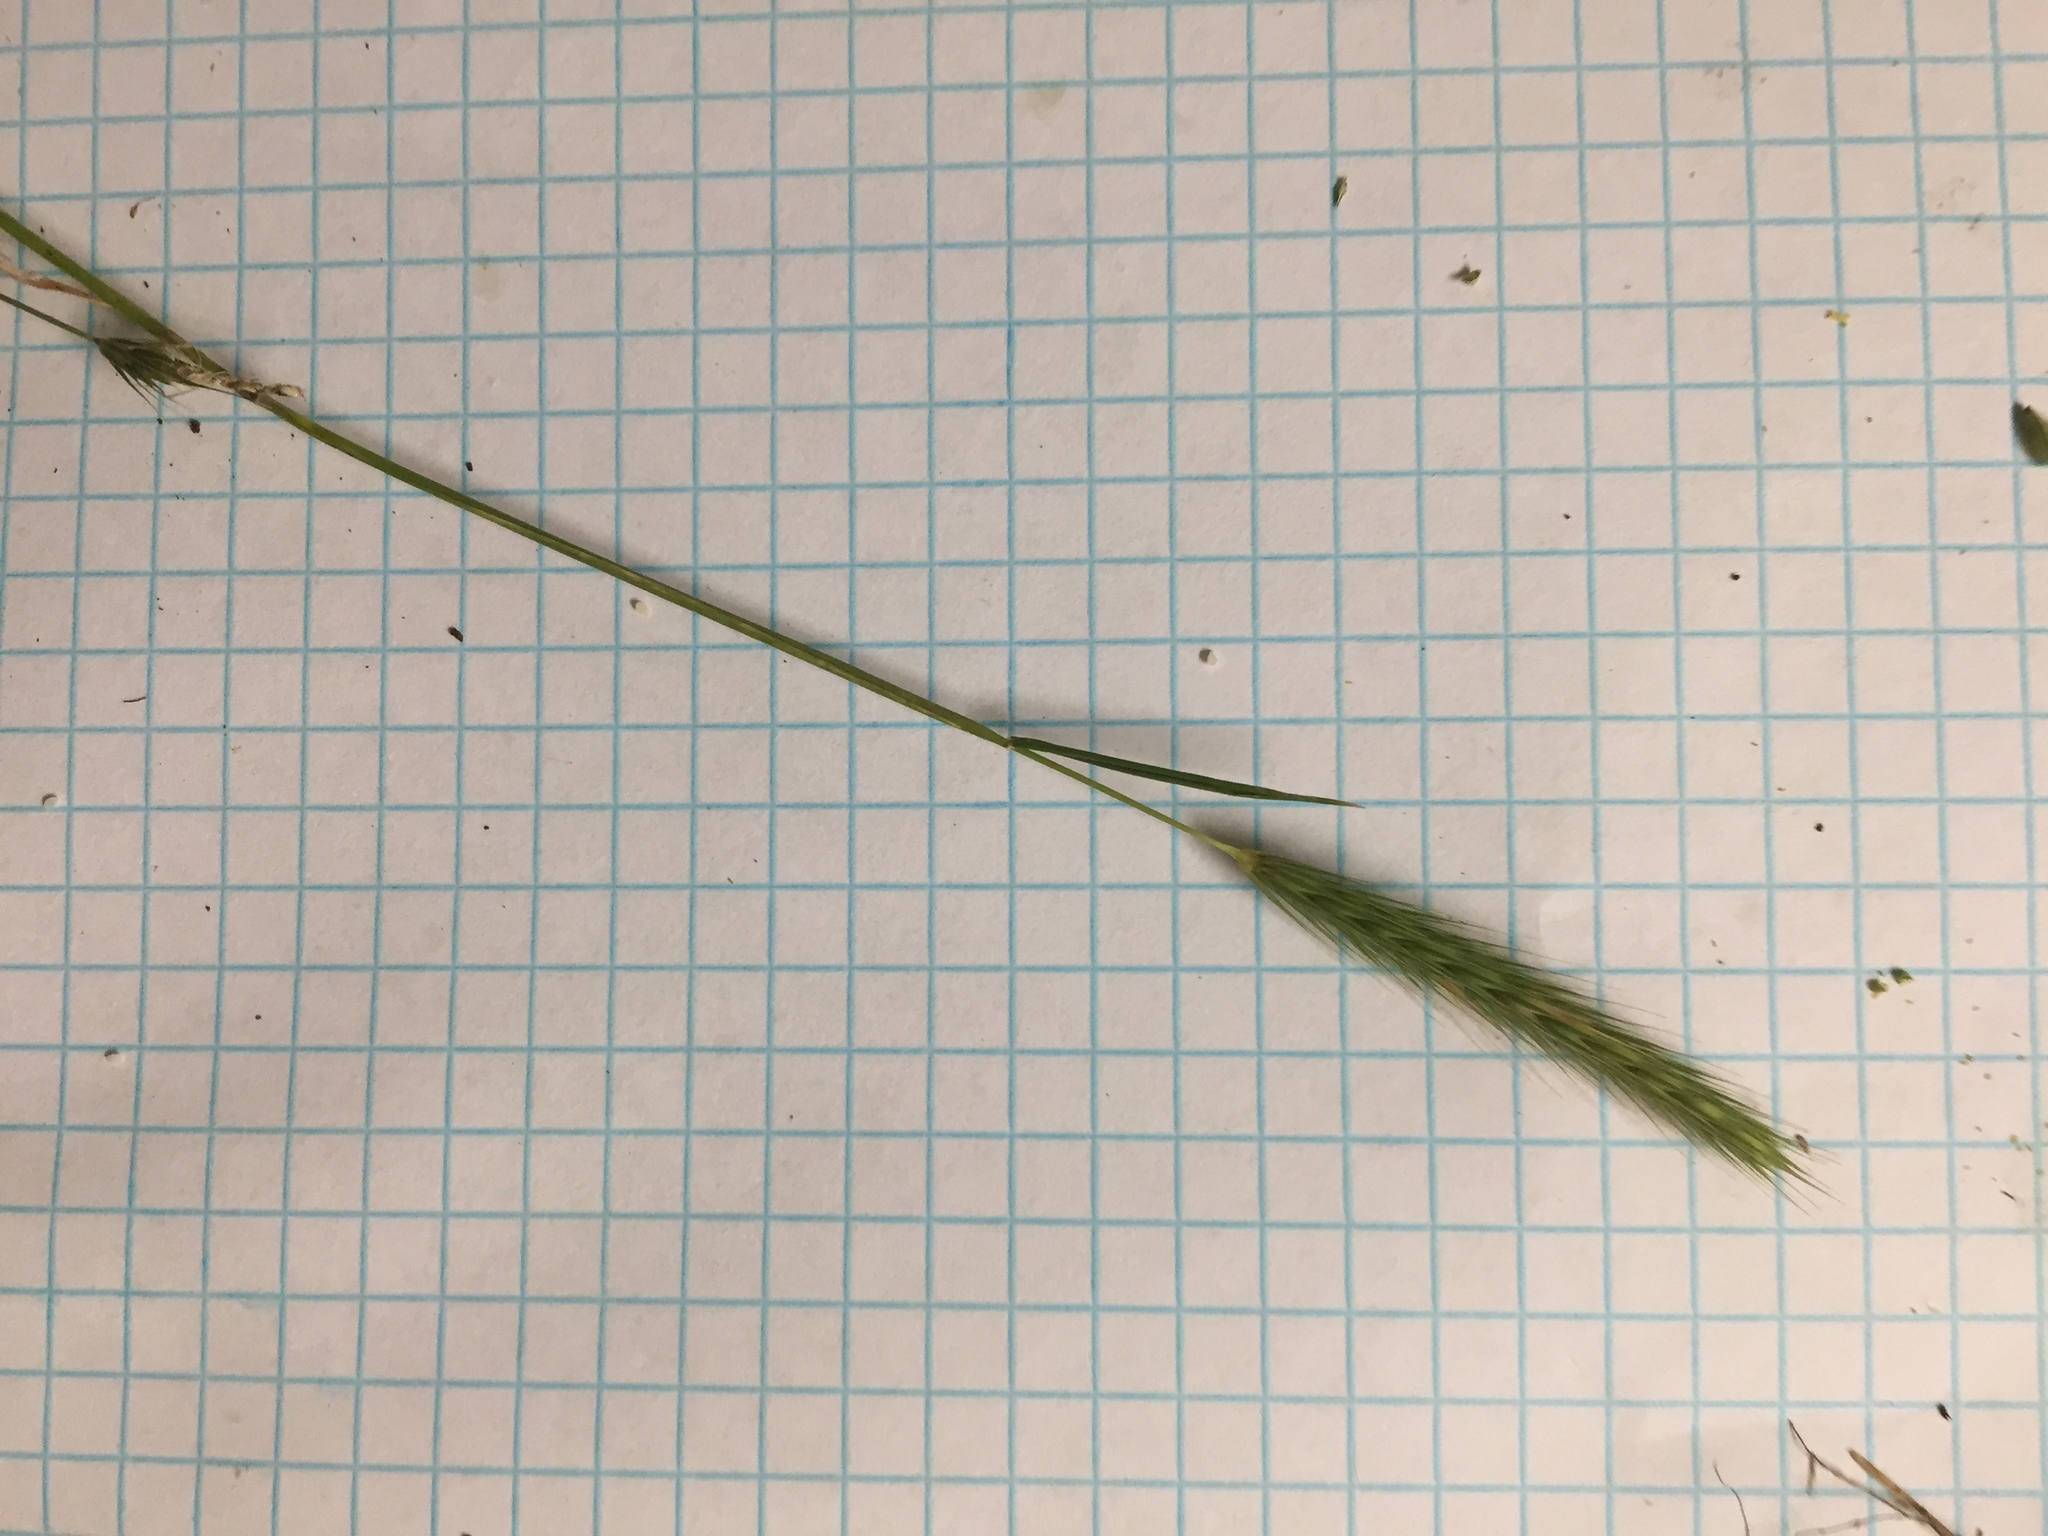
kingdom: Plantae
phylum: Tracheophyta
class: Liliopsida
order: Poales
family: Poaceae
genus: Hordeum
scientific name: Hordeum pusillum
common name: Little barley
